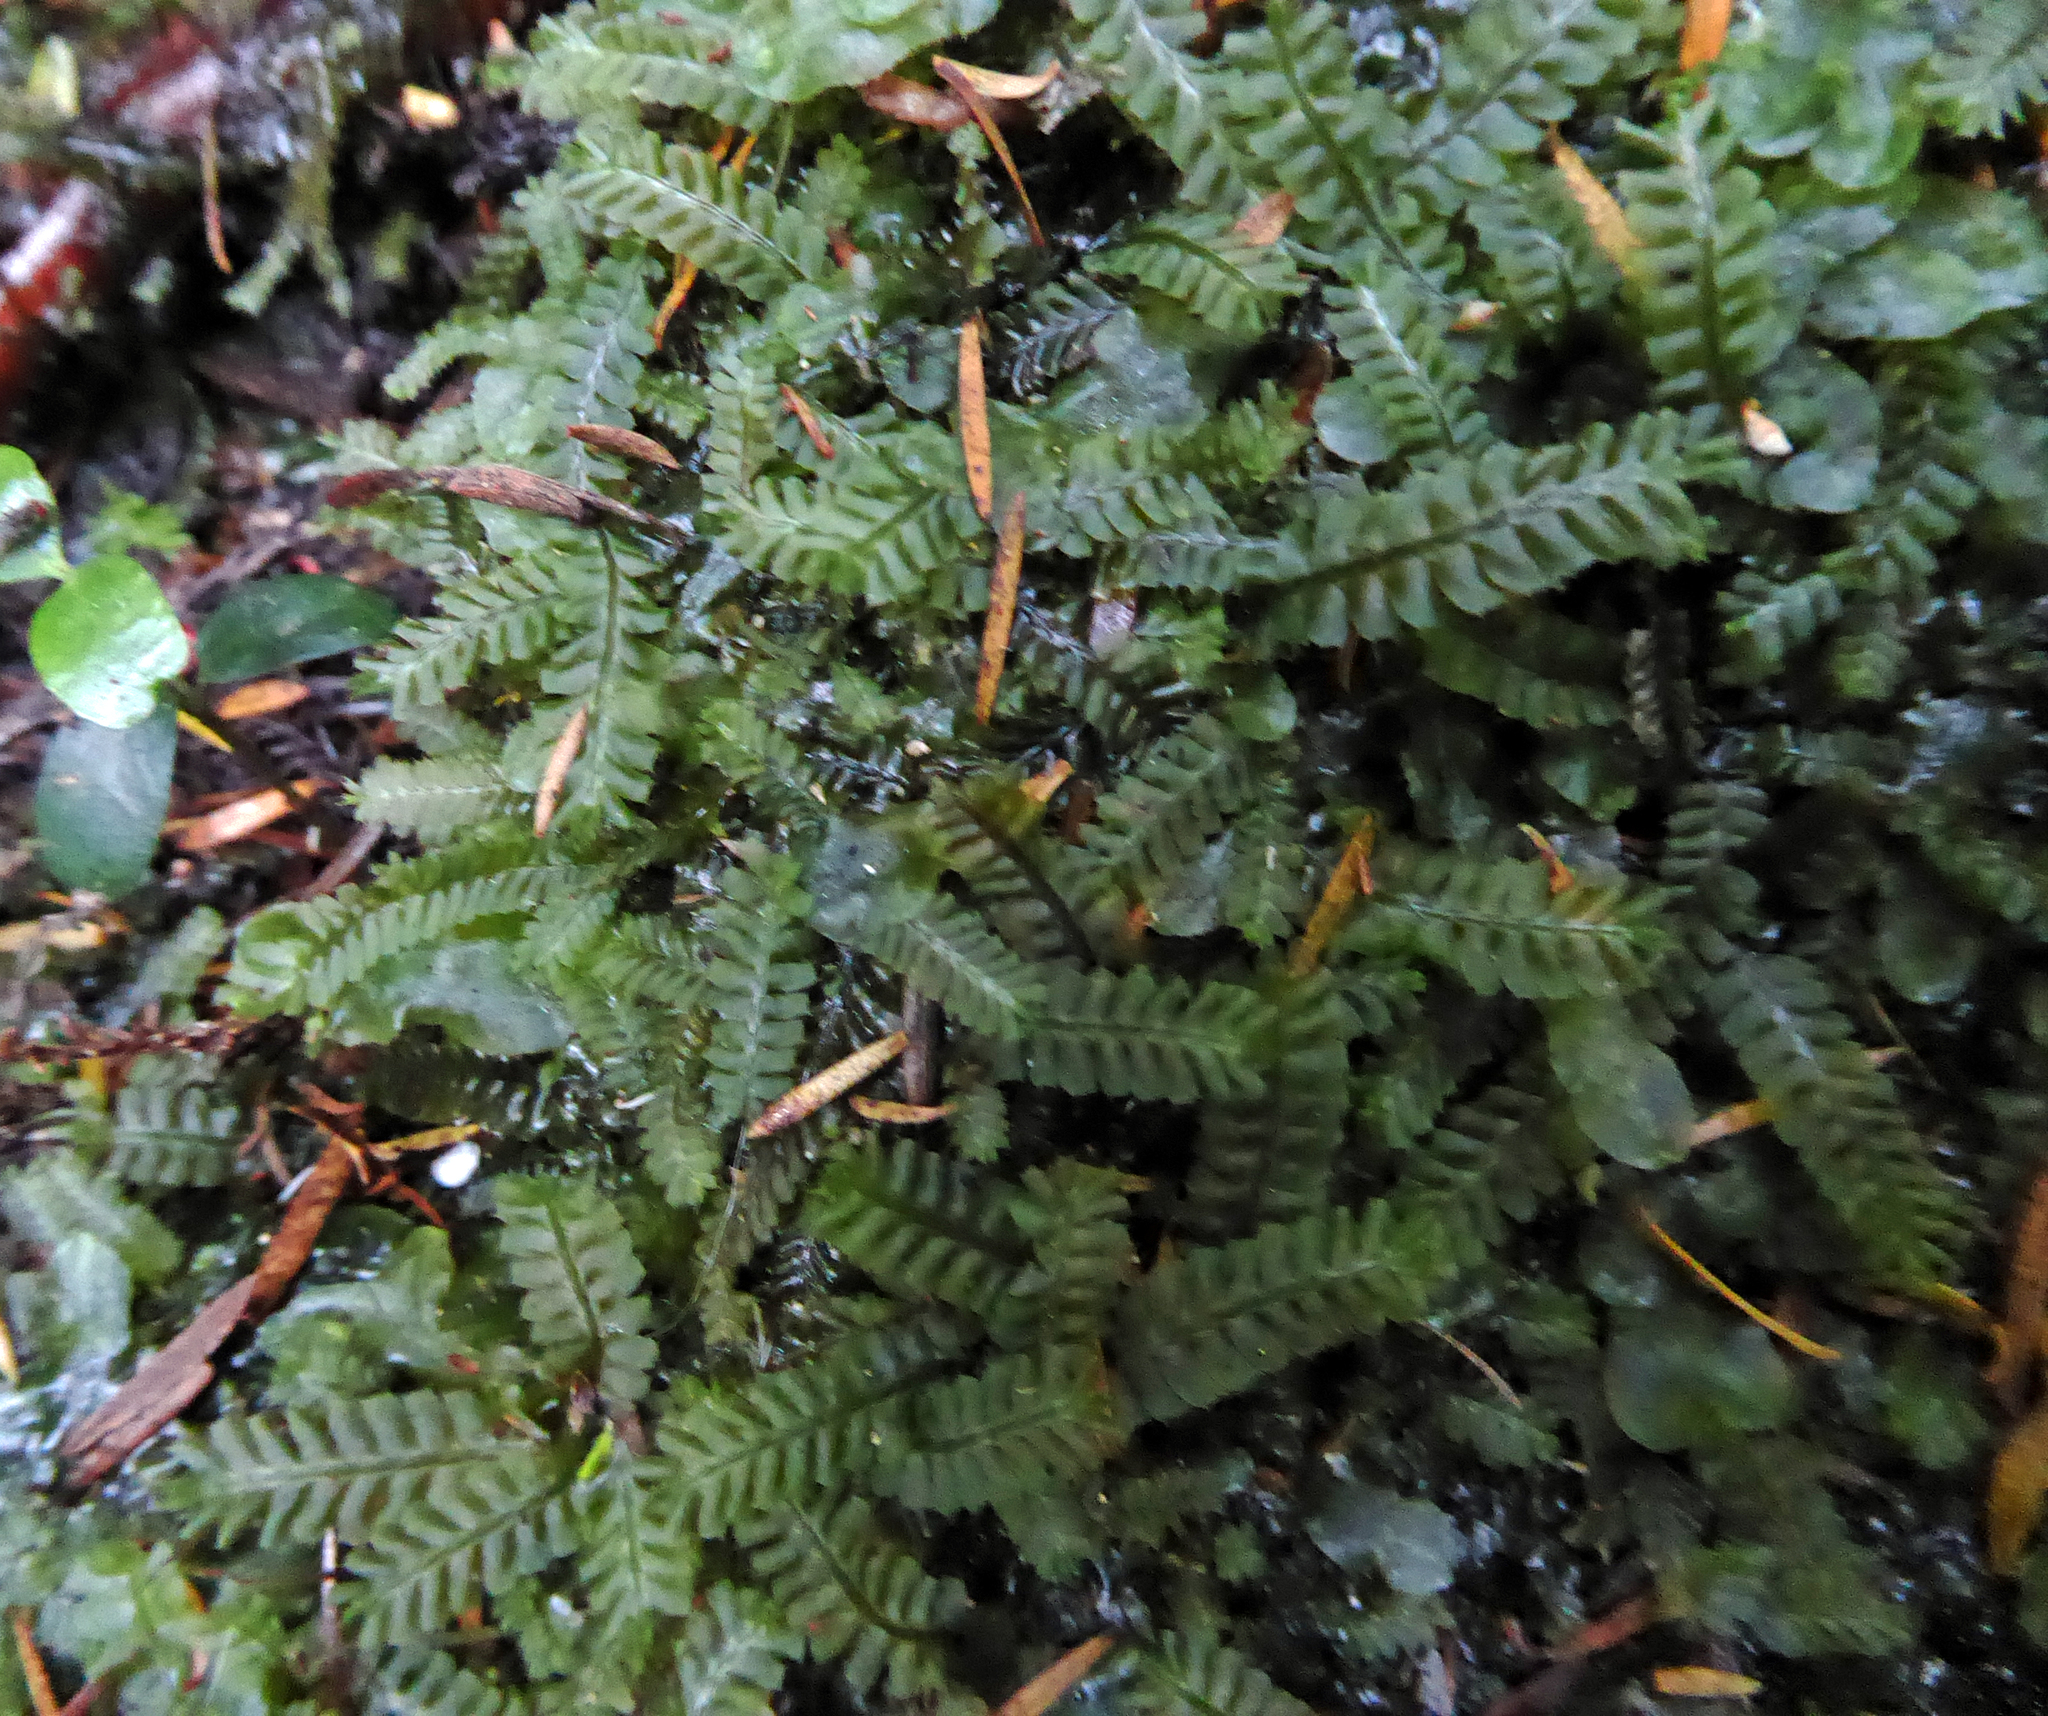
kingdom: Plantae
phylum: Marchantiophyta
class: Jungermanniopsida
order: Jungermanniales
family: Lophocoleaceae
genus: Heteroscyphus
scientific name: Heteroscyphus coalitus
